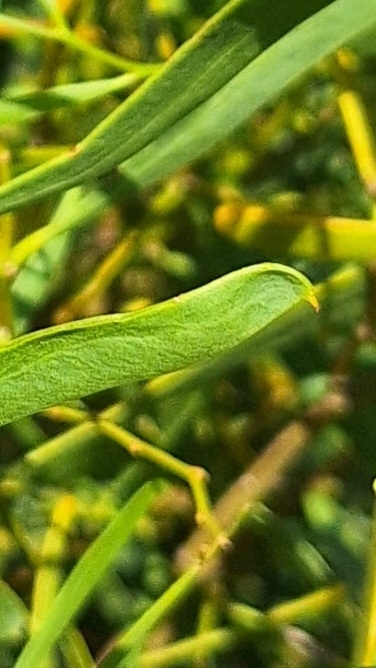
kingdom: Plantae
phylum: Tracheophyta
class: Magnoliopsida
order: Fabales
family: Fabaceae
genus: Acacia
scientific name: Acacia ligulata
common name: Dune wattle
